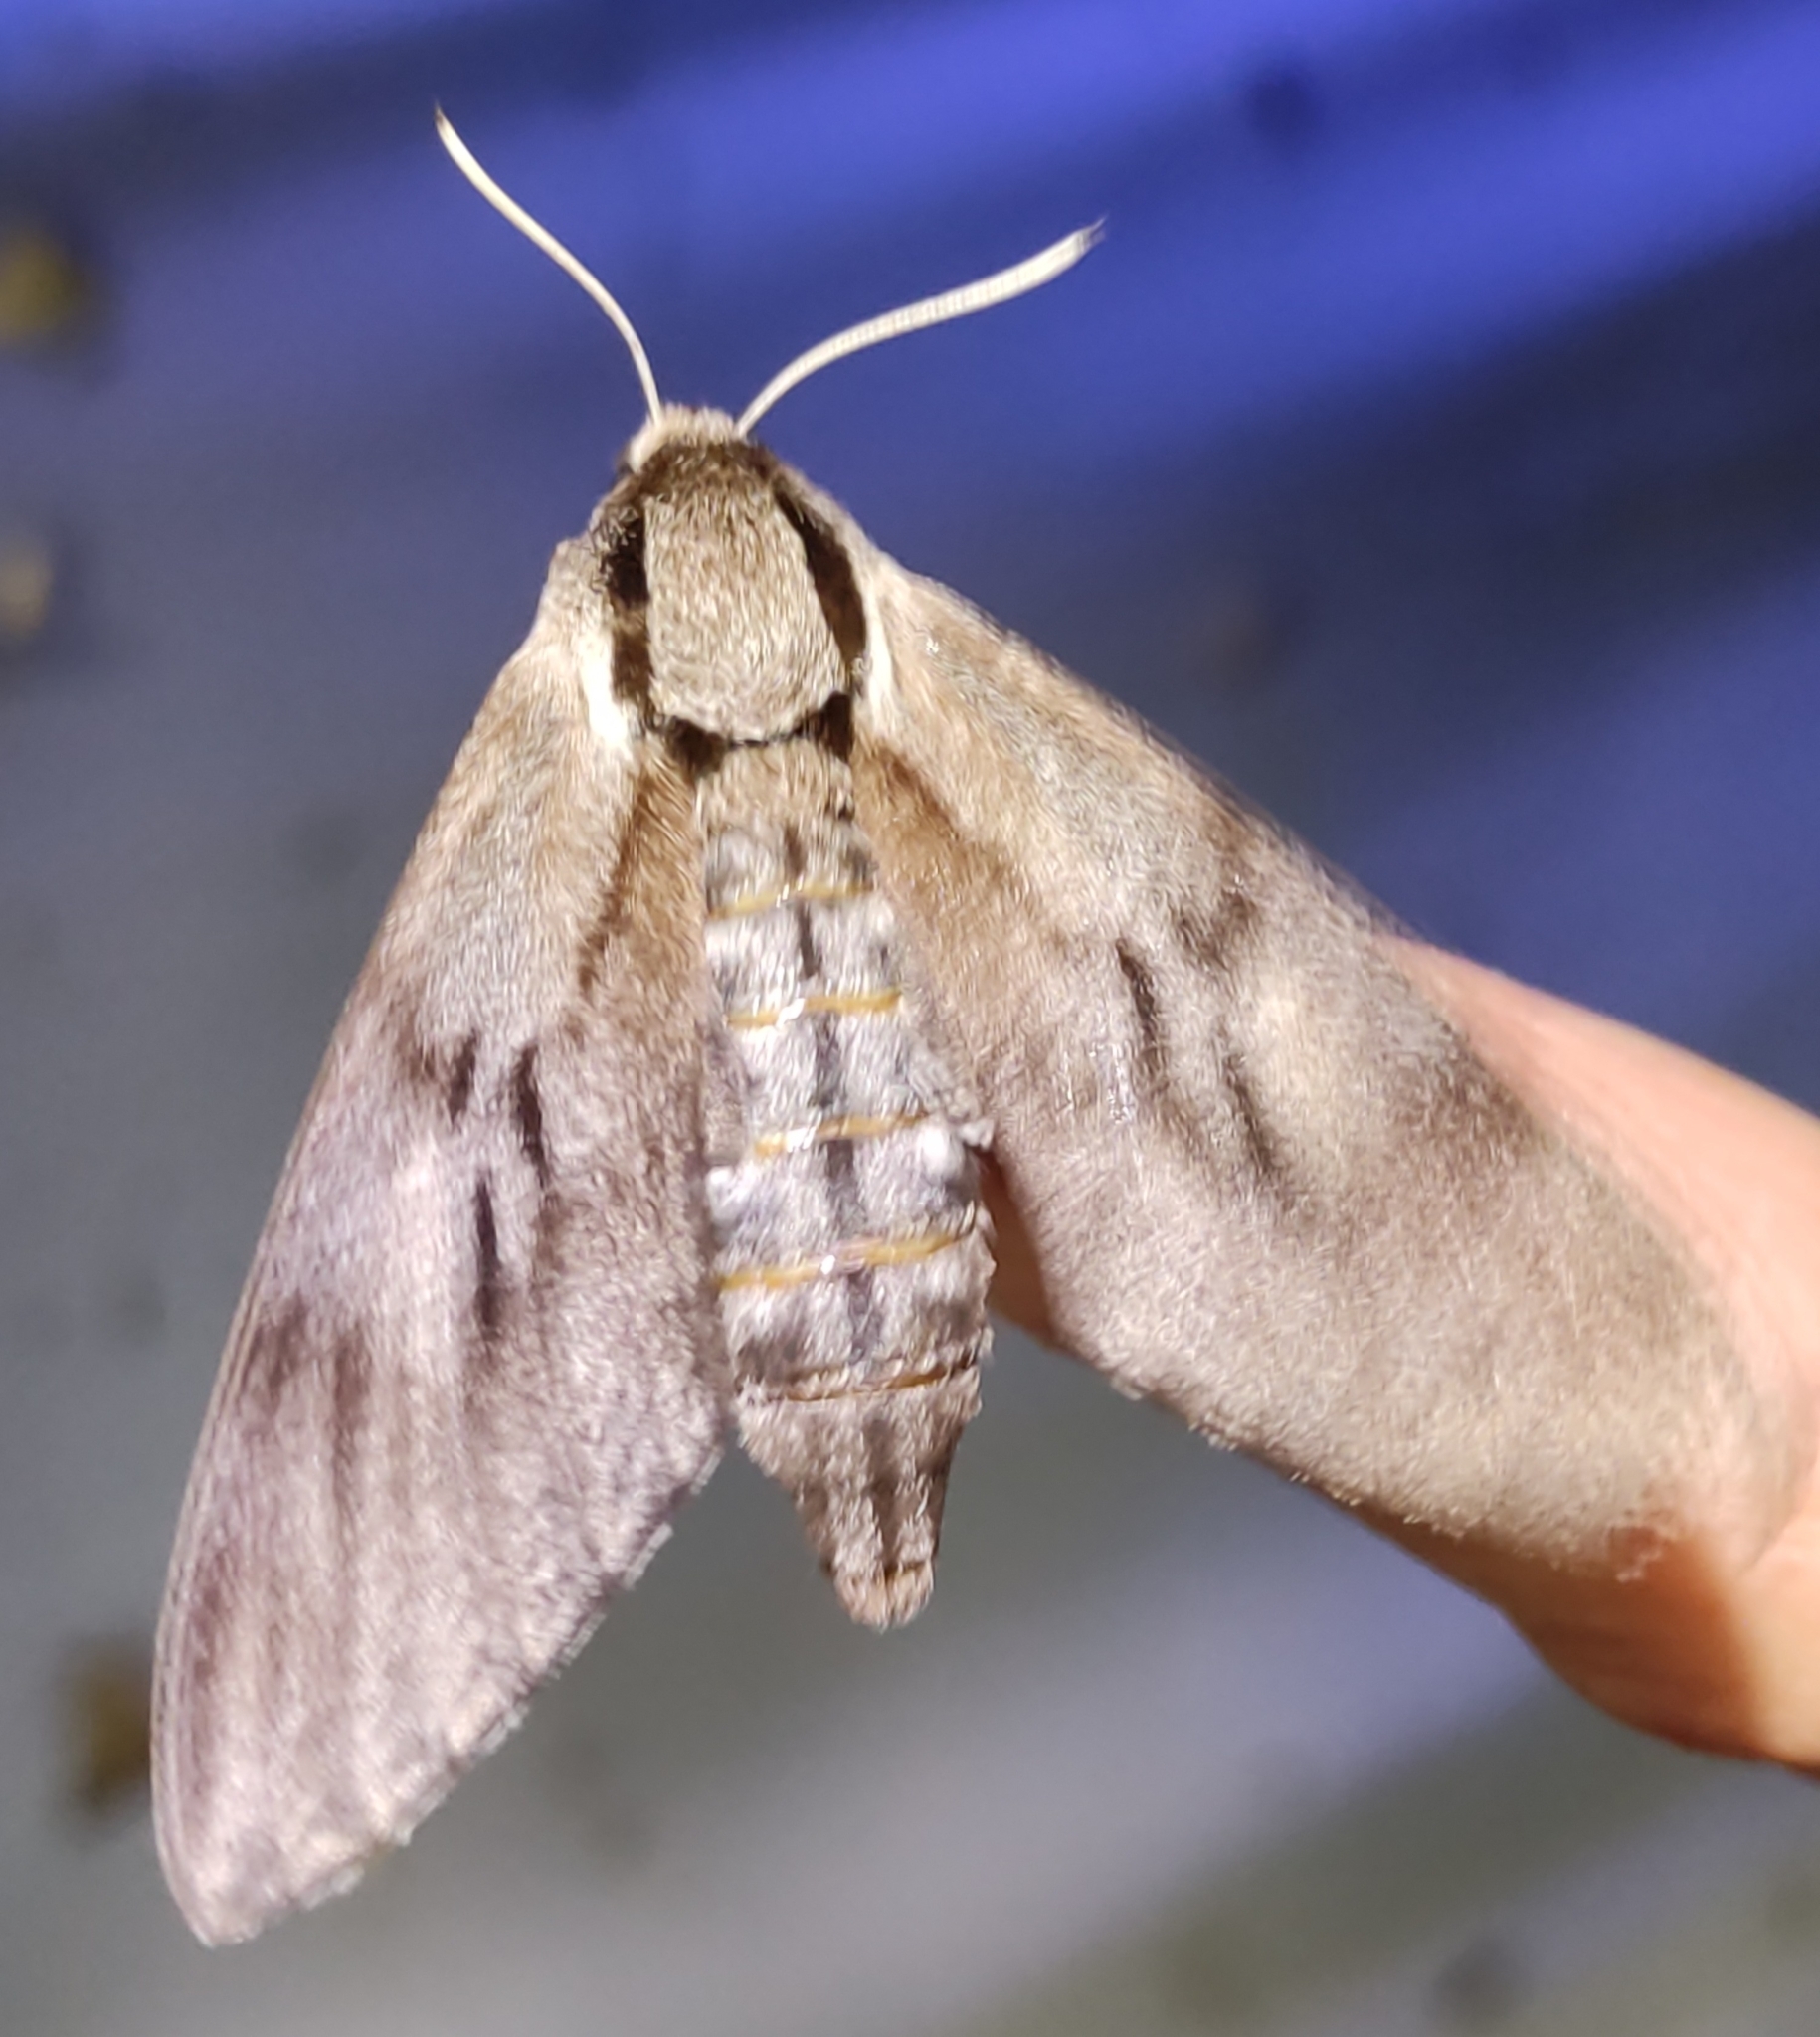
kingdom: Animalia
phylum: Arthropoda
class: Insecta
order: Lepidoptera
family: Sphingidae
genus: Sphinx
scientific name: Sphinx pinastri
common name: Pine hawk-moth
